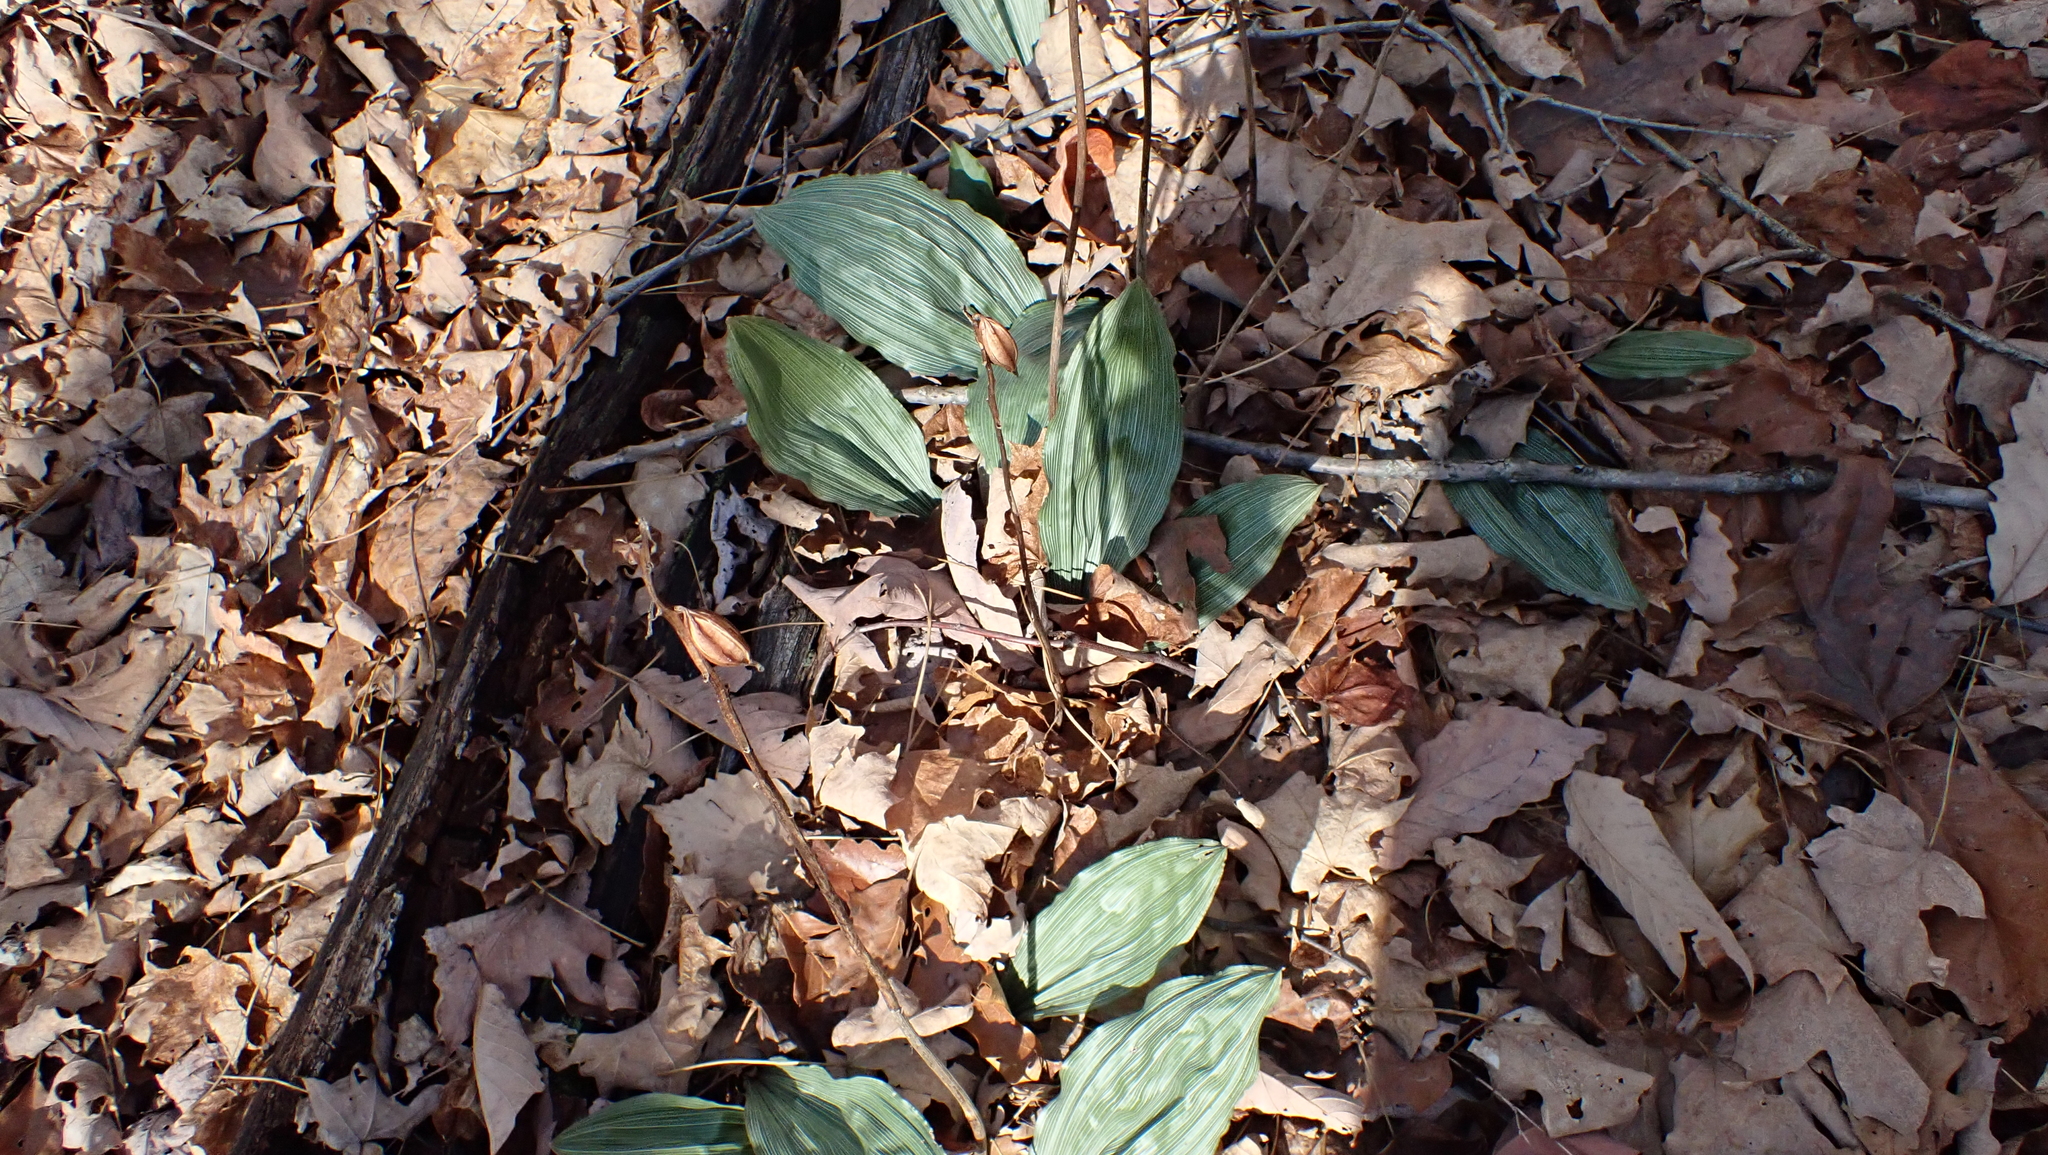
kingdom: Plantae
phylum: Tracheophyta
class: Liliopsida
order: Asparagales
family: Orchidaceae
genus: Aplectrum
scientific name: Aplectrum hyemale
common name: Adam-and-eve
